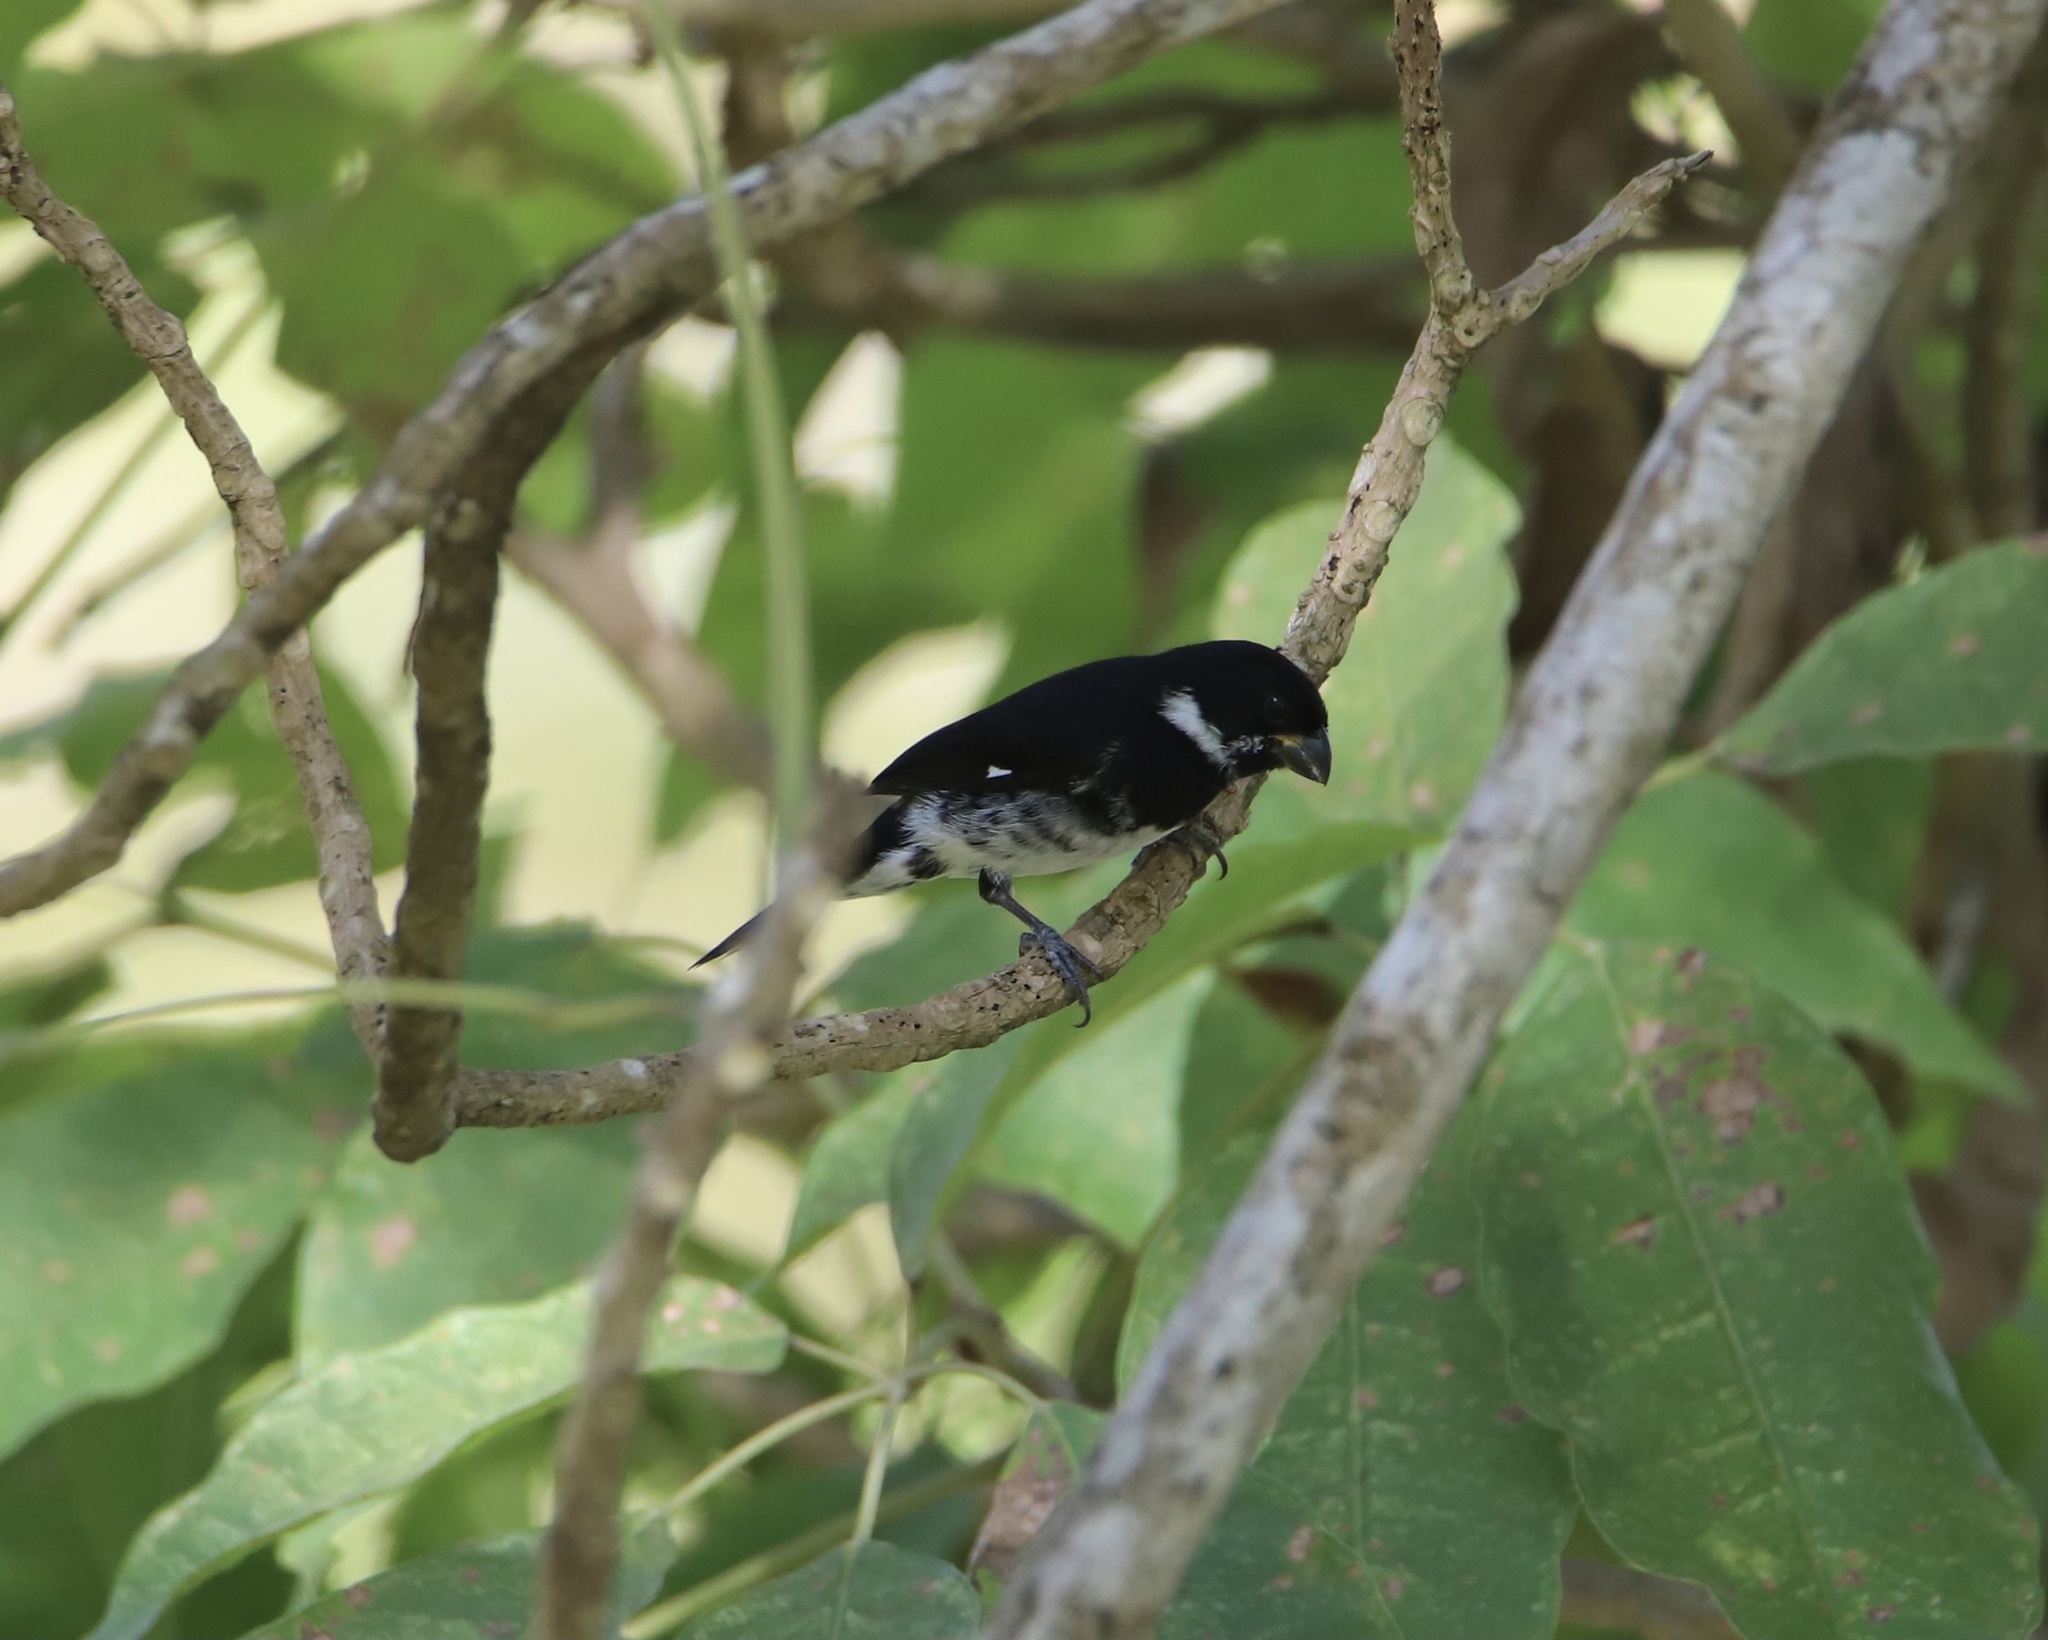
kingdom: Animalia
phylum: Chordata
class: Aves
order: Passeriformes
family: Thraupidae
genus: Sporophila
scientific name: Sporophila corvina
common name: Variable seedeater
